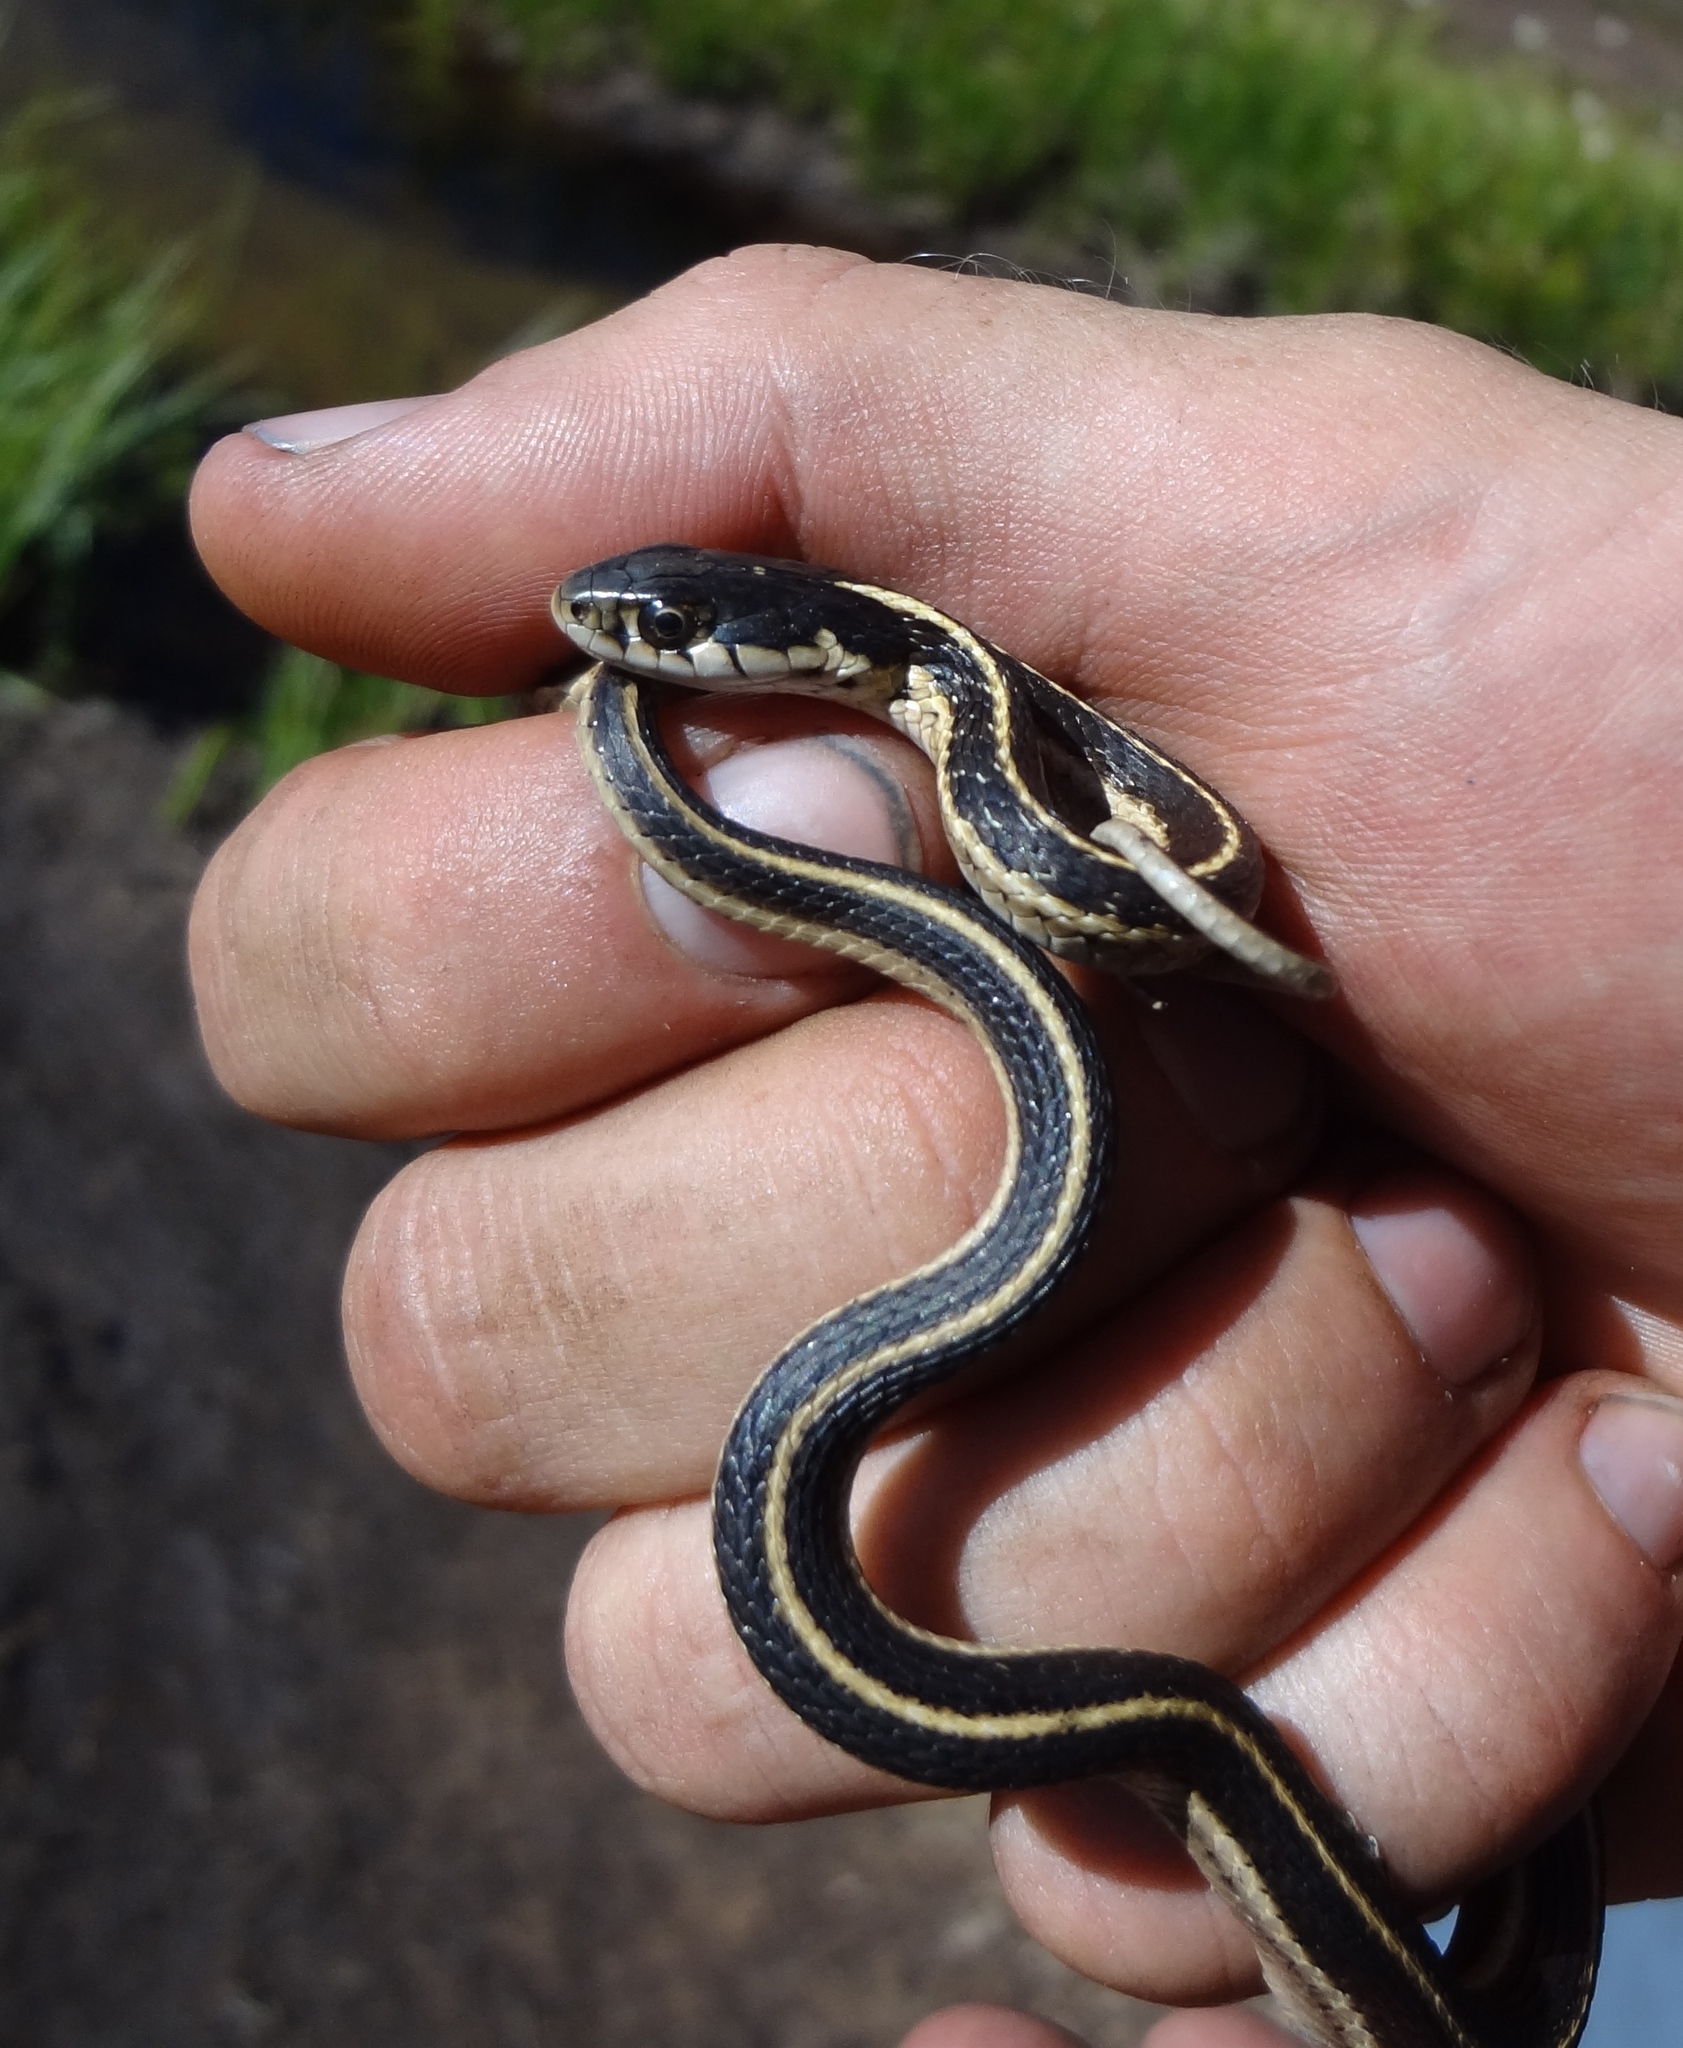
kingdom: Animalia
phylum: Chordata
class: Squamata
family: Colubridae
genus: Thamnophis
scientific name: Thamnophis elegans
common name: Western terrestrial garter snake
